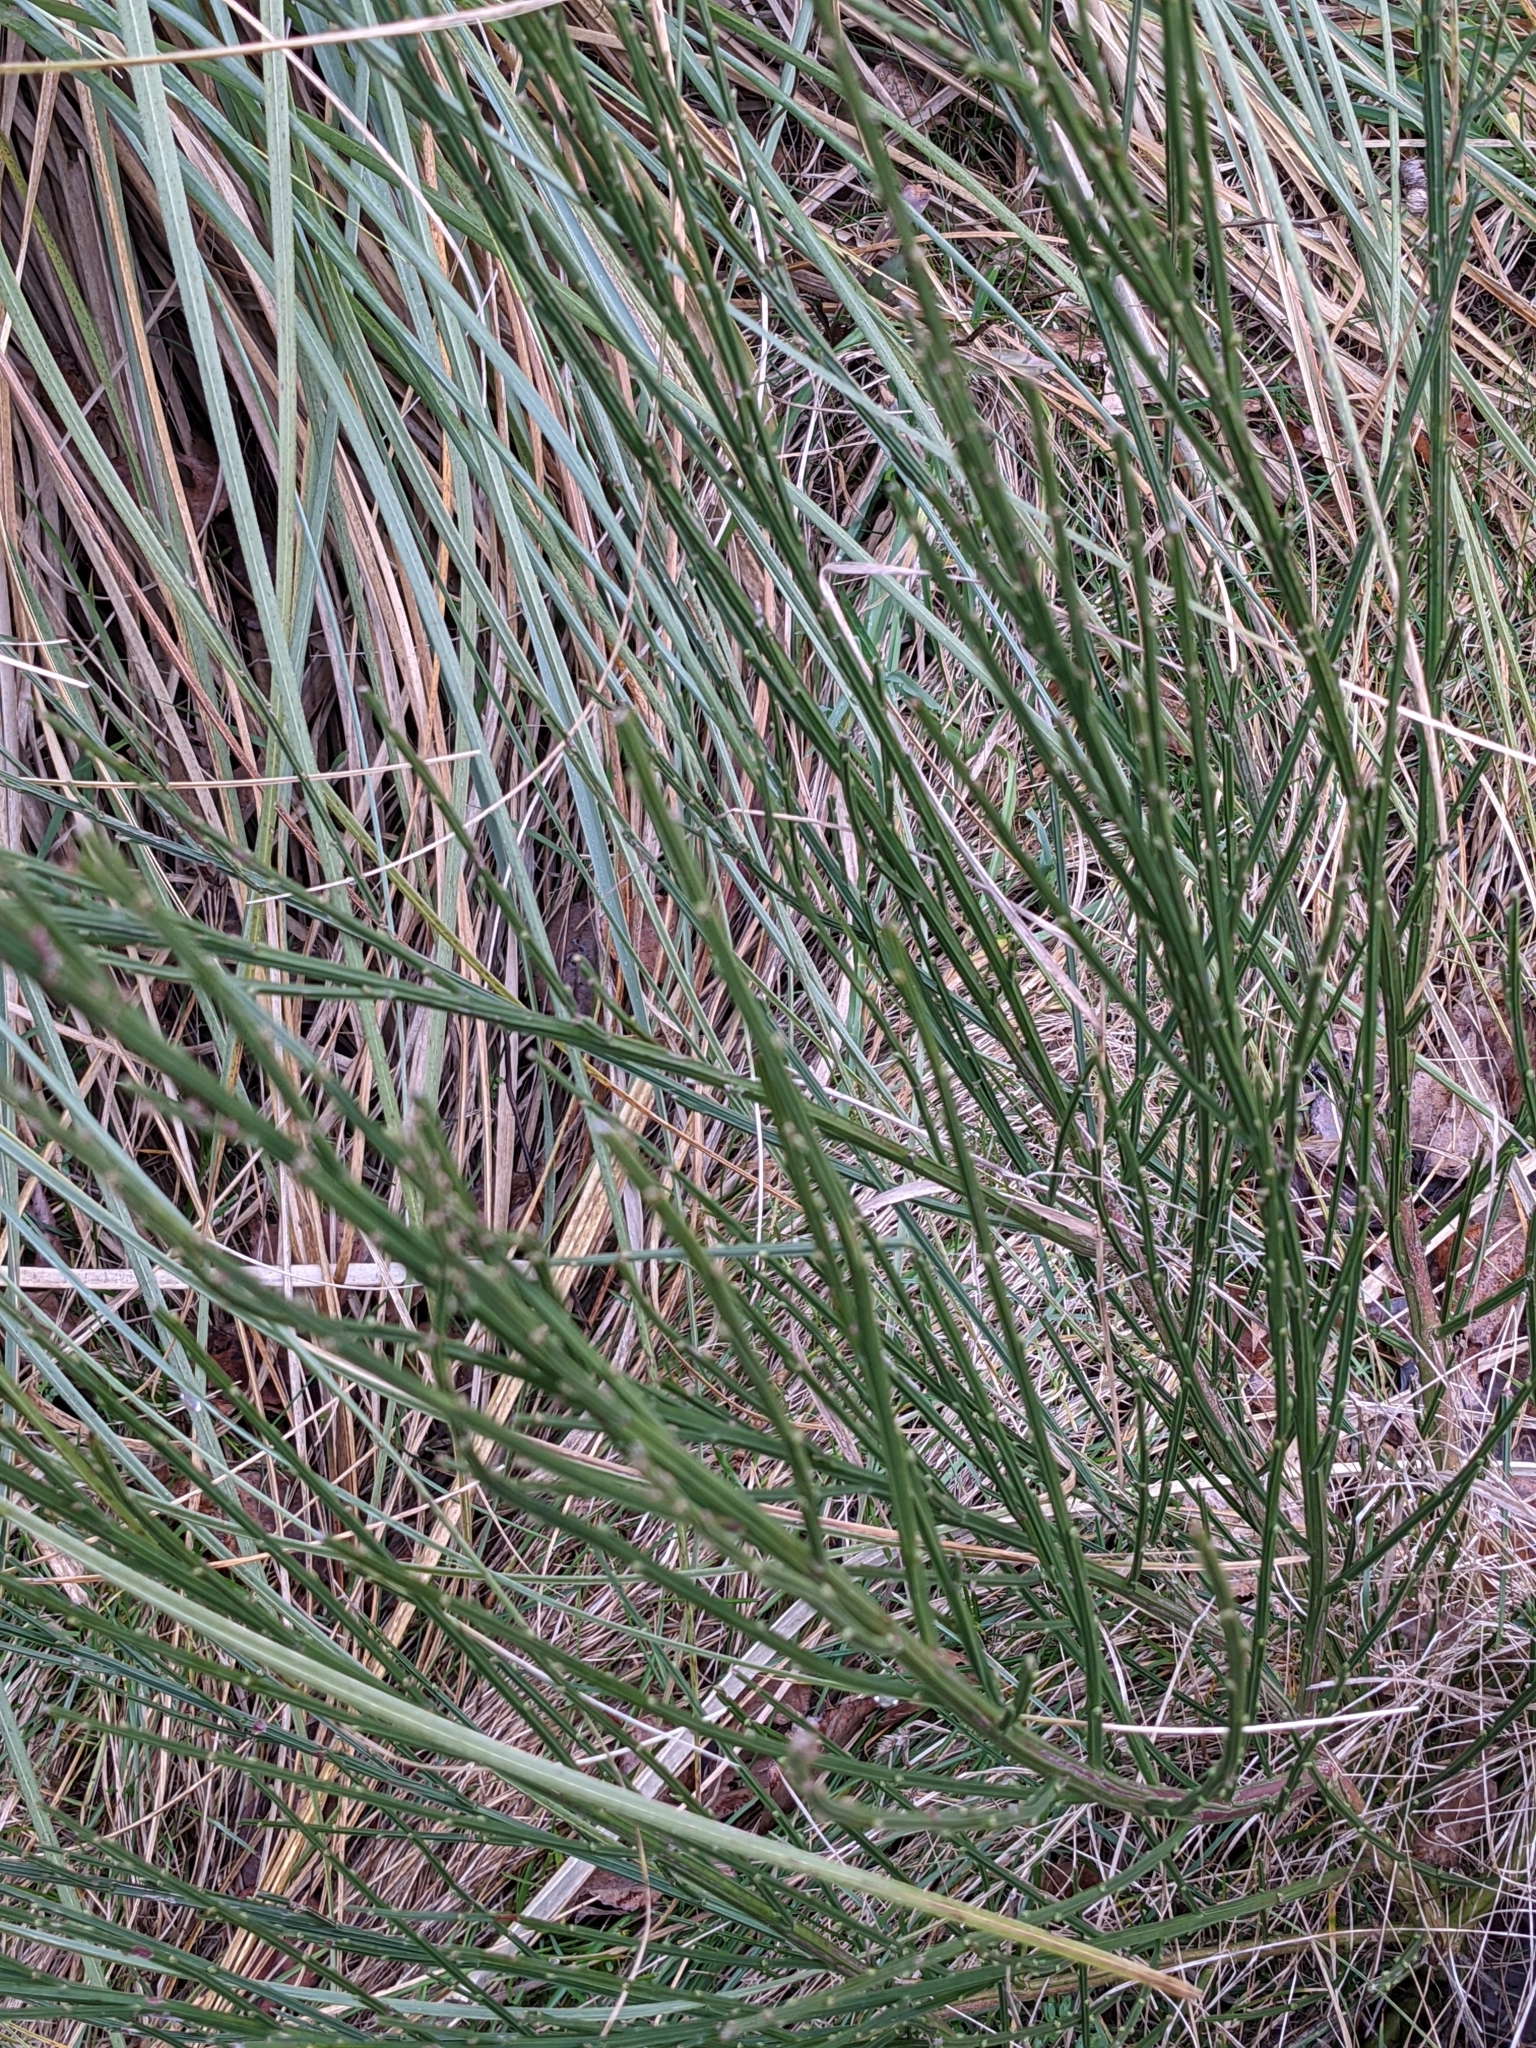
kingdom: Plantae
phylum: Tracheophyta
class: Magnoliopsida
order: Fabales
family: Fabaceae
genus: Cytisus
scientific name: Cytisus scoparius
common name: Scotch broom
